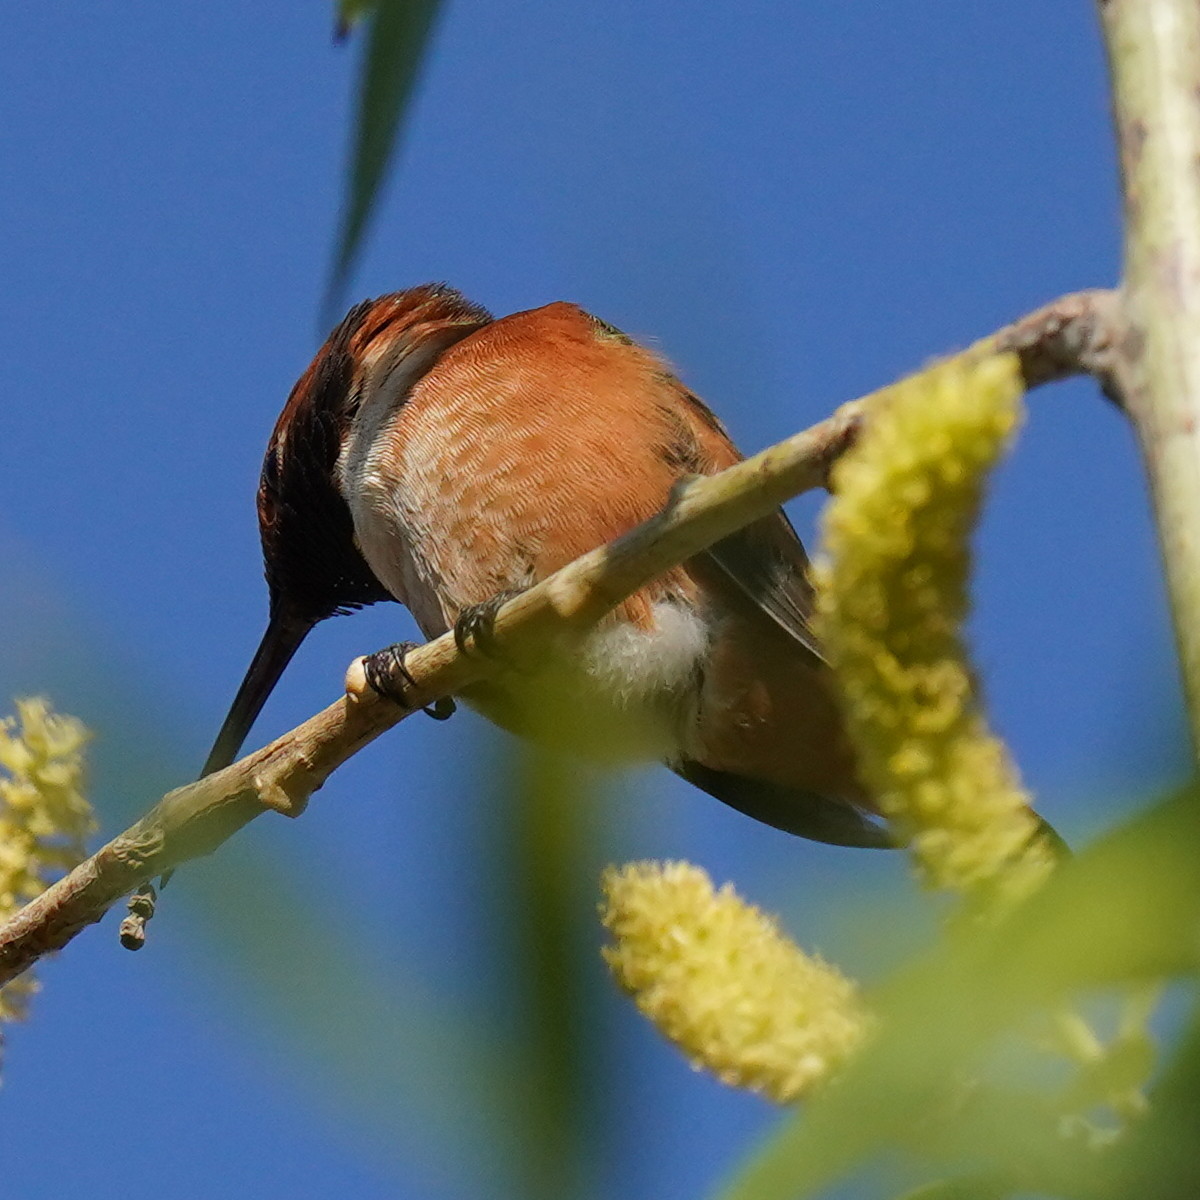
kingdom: Animalia
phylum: Chordata
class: Aves
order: Apodiformes
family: Trochilidae
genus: Selasphorus
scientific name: Selasphorus sasin
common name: Allen's hummingbird
